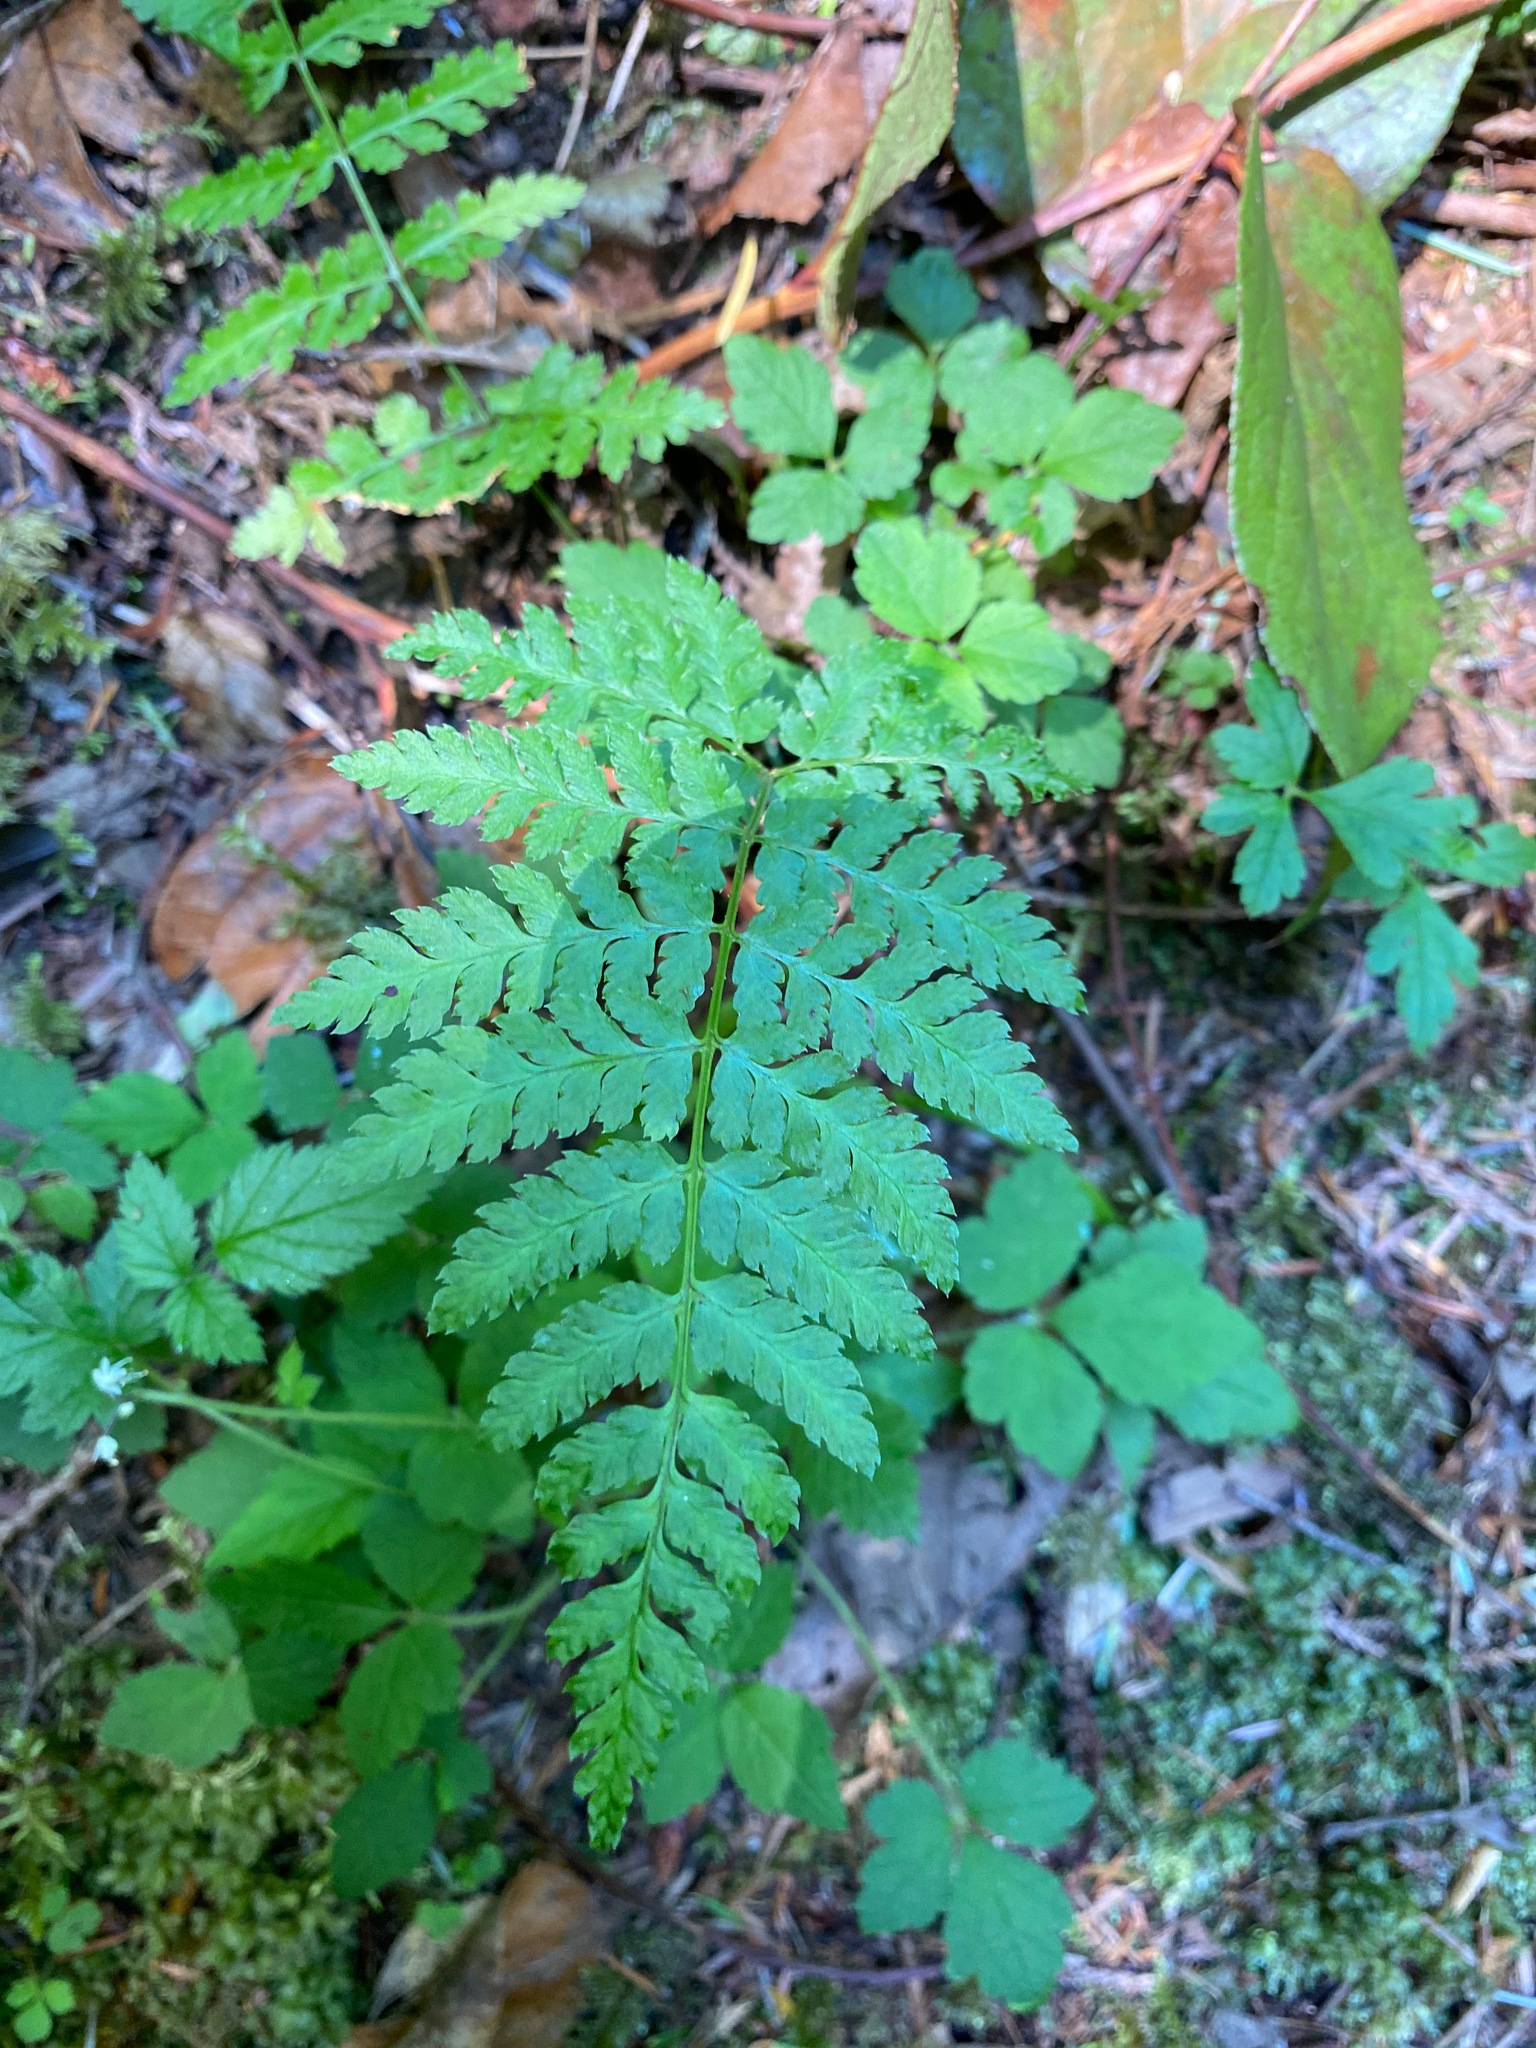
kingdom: Plantae
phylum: Tracheophyta
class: Polypodiopsida
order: Polypodiales
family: Dryopteridaceae
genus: Dryopteris
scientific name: Dryopteris expansa
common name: Northern buckler fern
